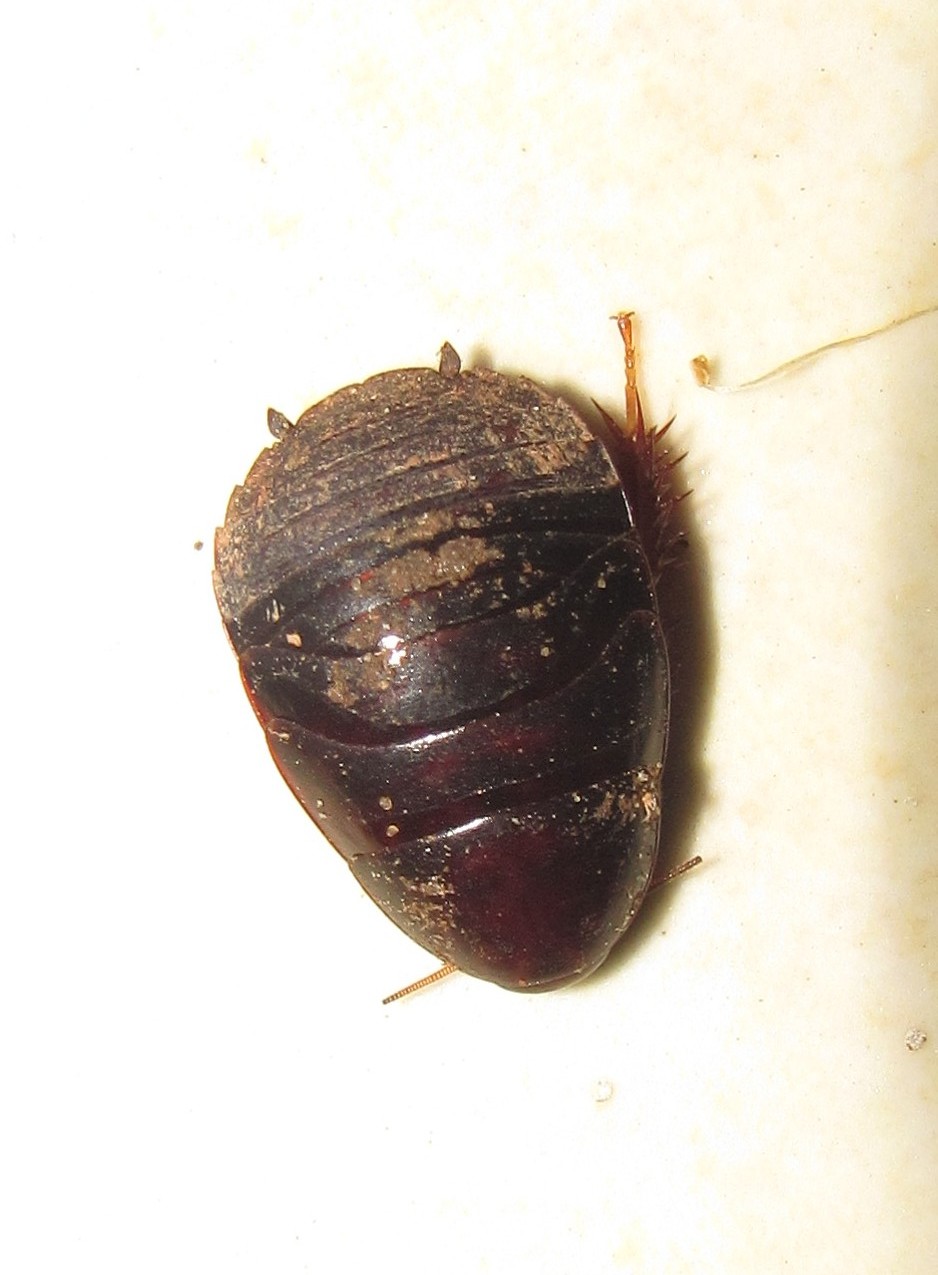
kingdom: Animalia
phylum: Arthropoda
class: Insecta
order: Blattodea
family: Blaberidae
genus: Pycnoscelus
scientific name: Pycnoscelus surinamensis
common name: Surinam cockroach
